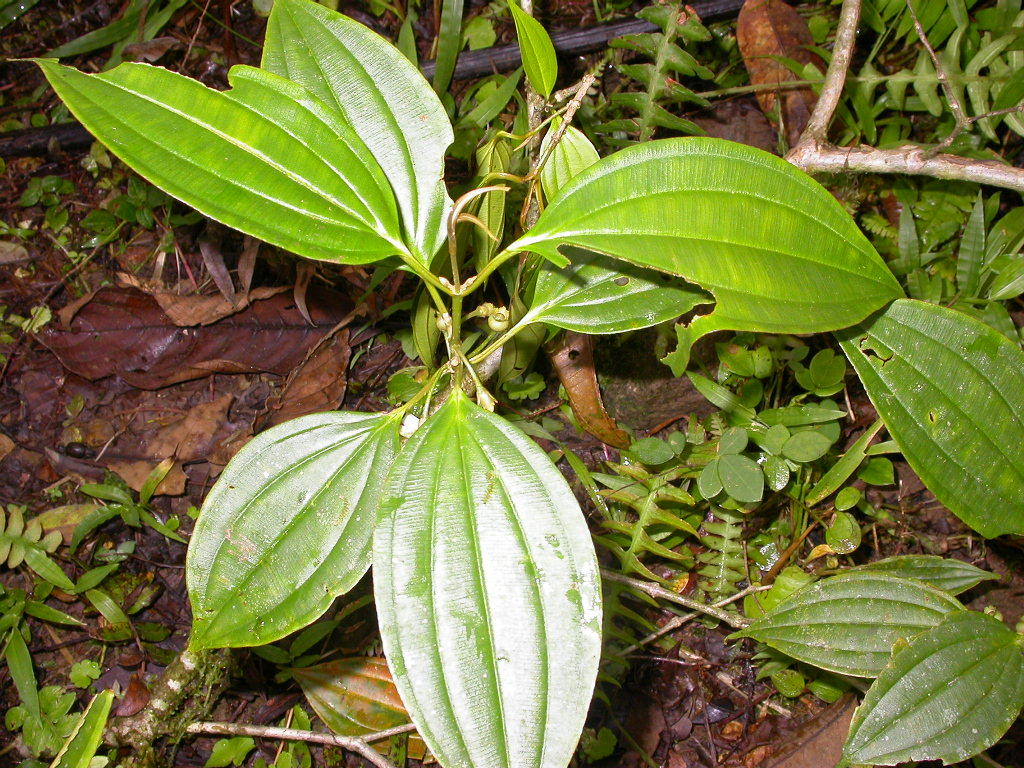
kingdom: Plantae
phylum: Tracheophyta
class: Magnoliopsida
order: Myrtales
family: Melastomataceae
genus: Blakea
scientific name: Blakea henripittieri
